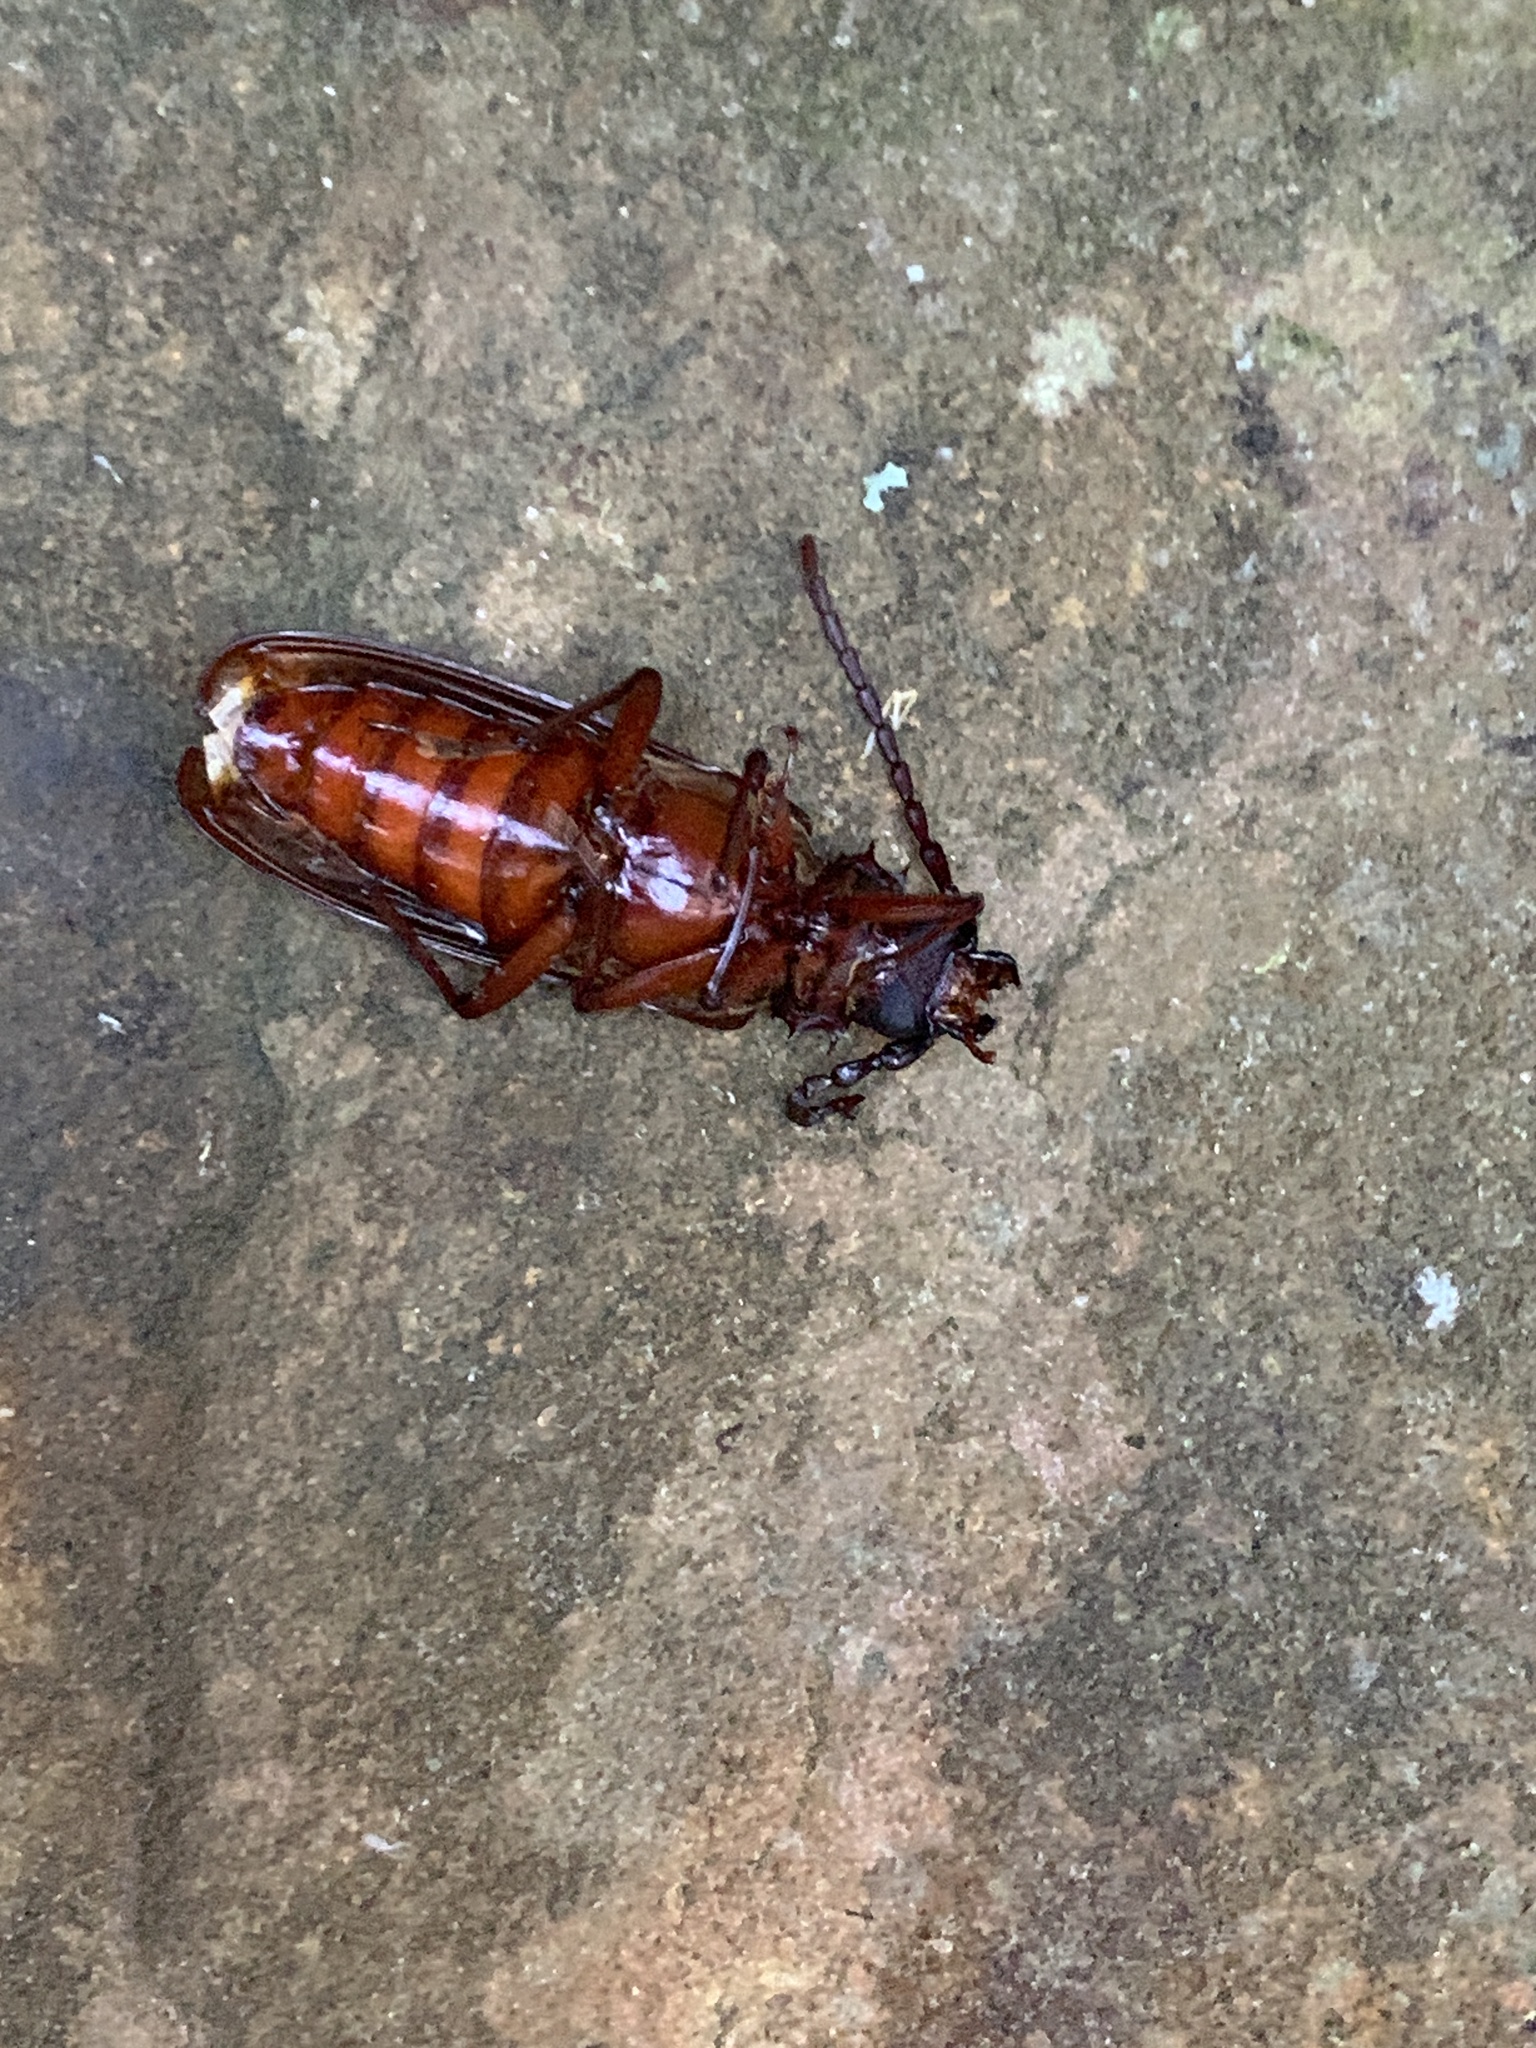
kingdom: Animalia
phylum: Arthropoda
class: Insecta
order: Coleoptera
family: Cerambycidae
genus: Orthosoma
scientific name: Orthosoma brunneum
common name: Brown prionid beetle
